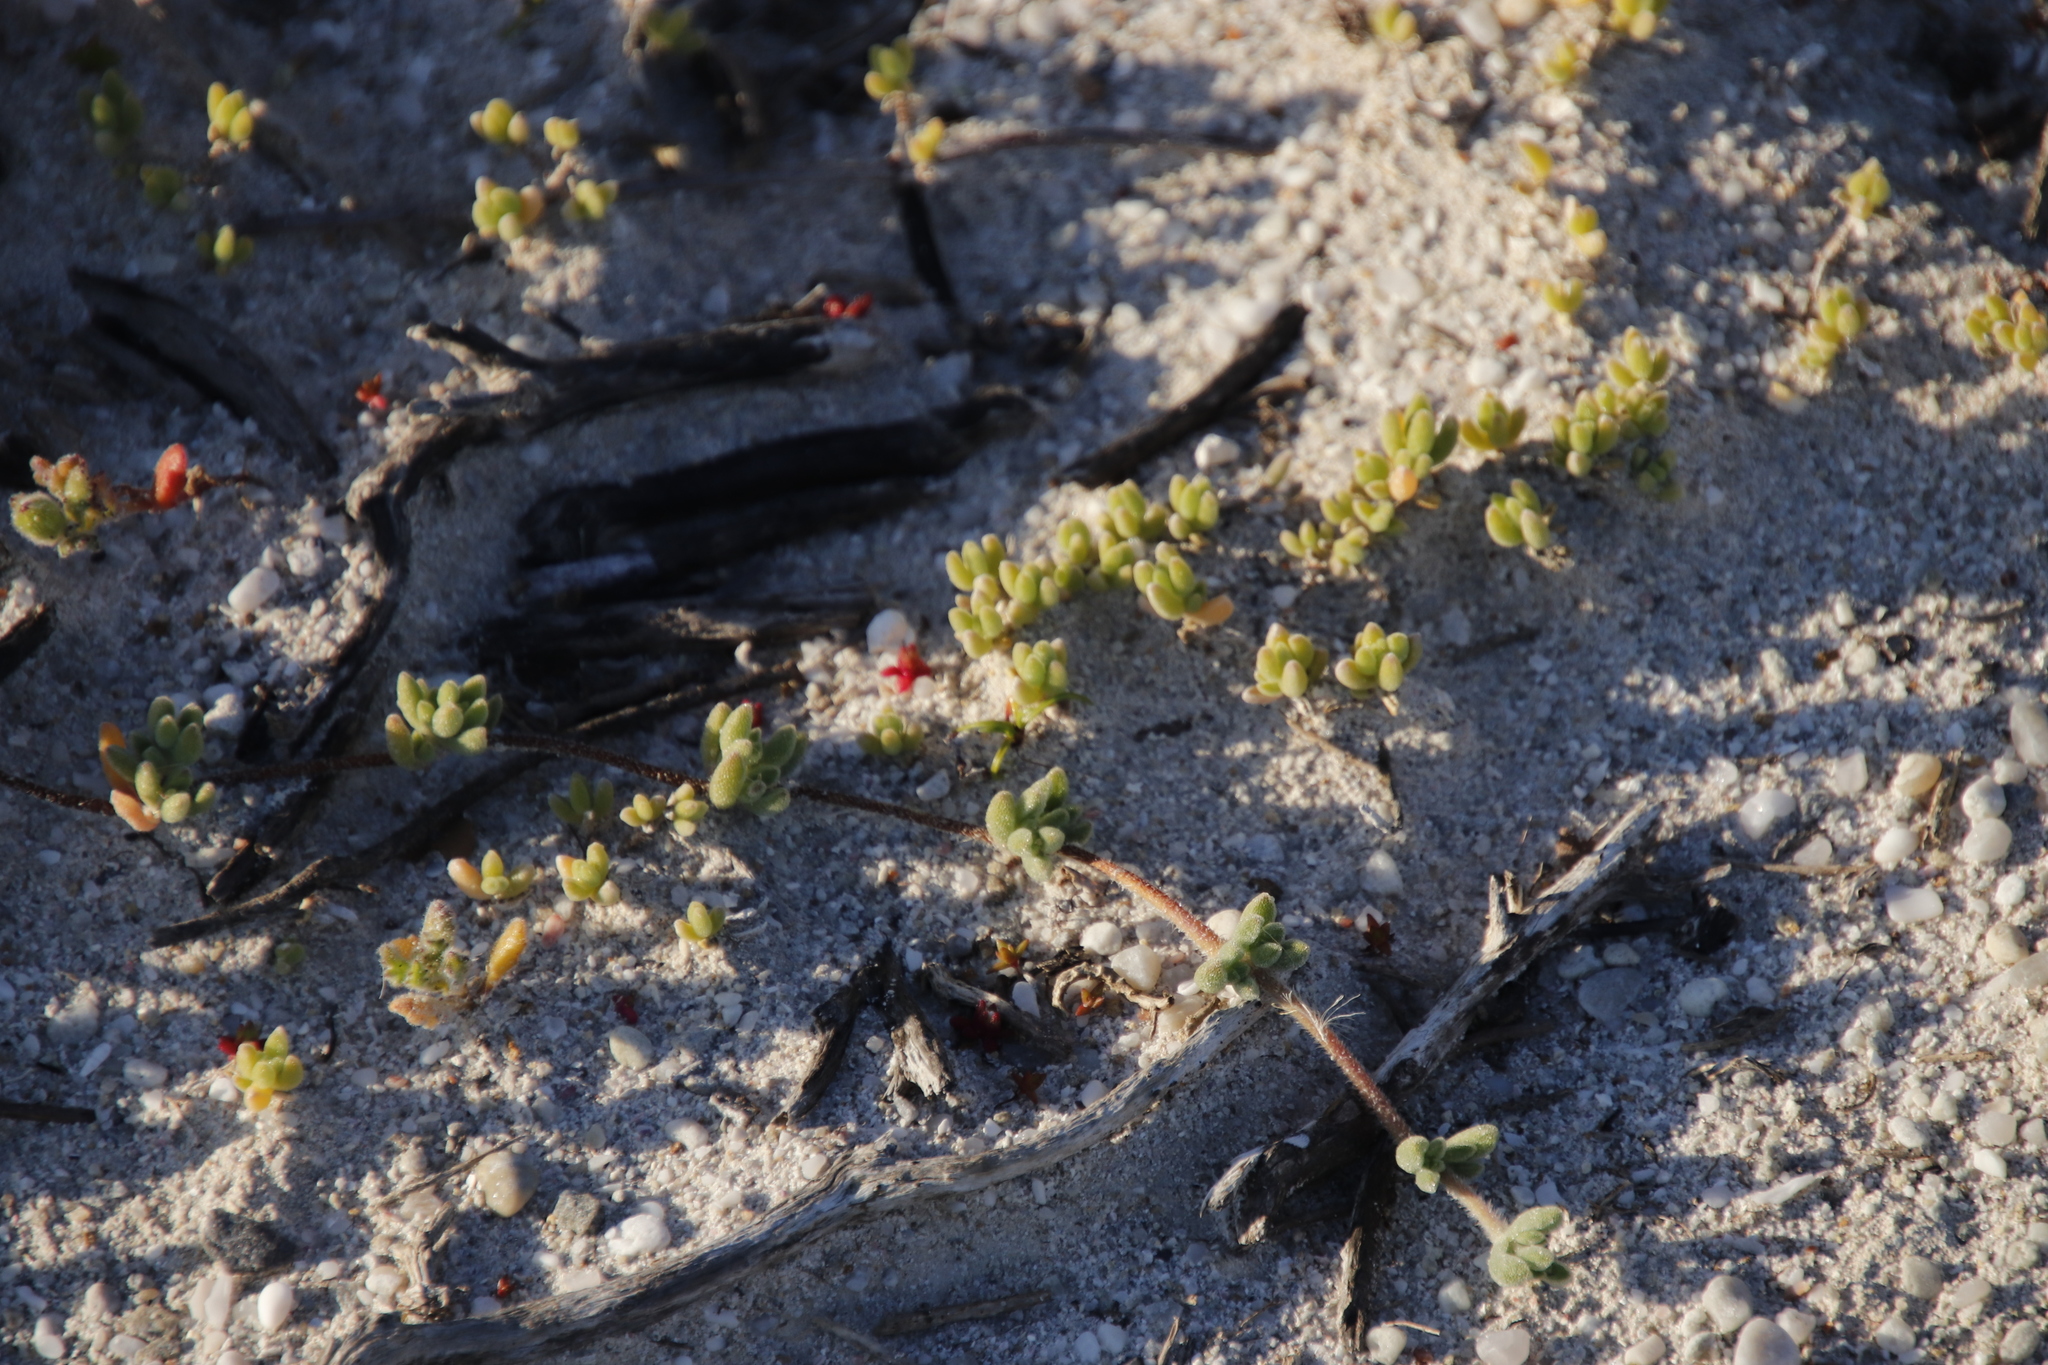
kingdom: Plantae
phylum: Tracheophyta
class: Magnoliopsida
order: Caryophyllales
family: Aizoaceae
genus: Drosanthemum
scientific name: Drosanthemum candens
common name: Rodondo-creeper
